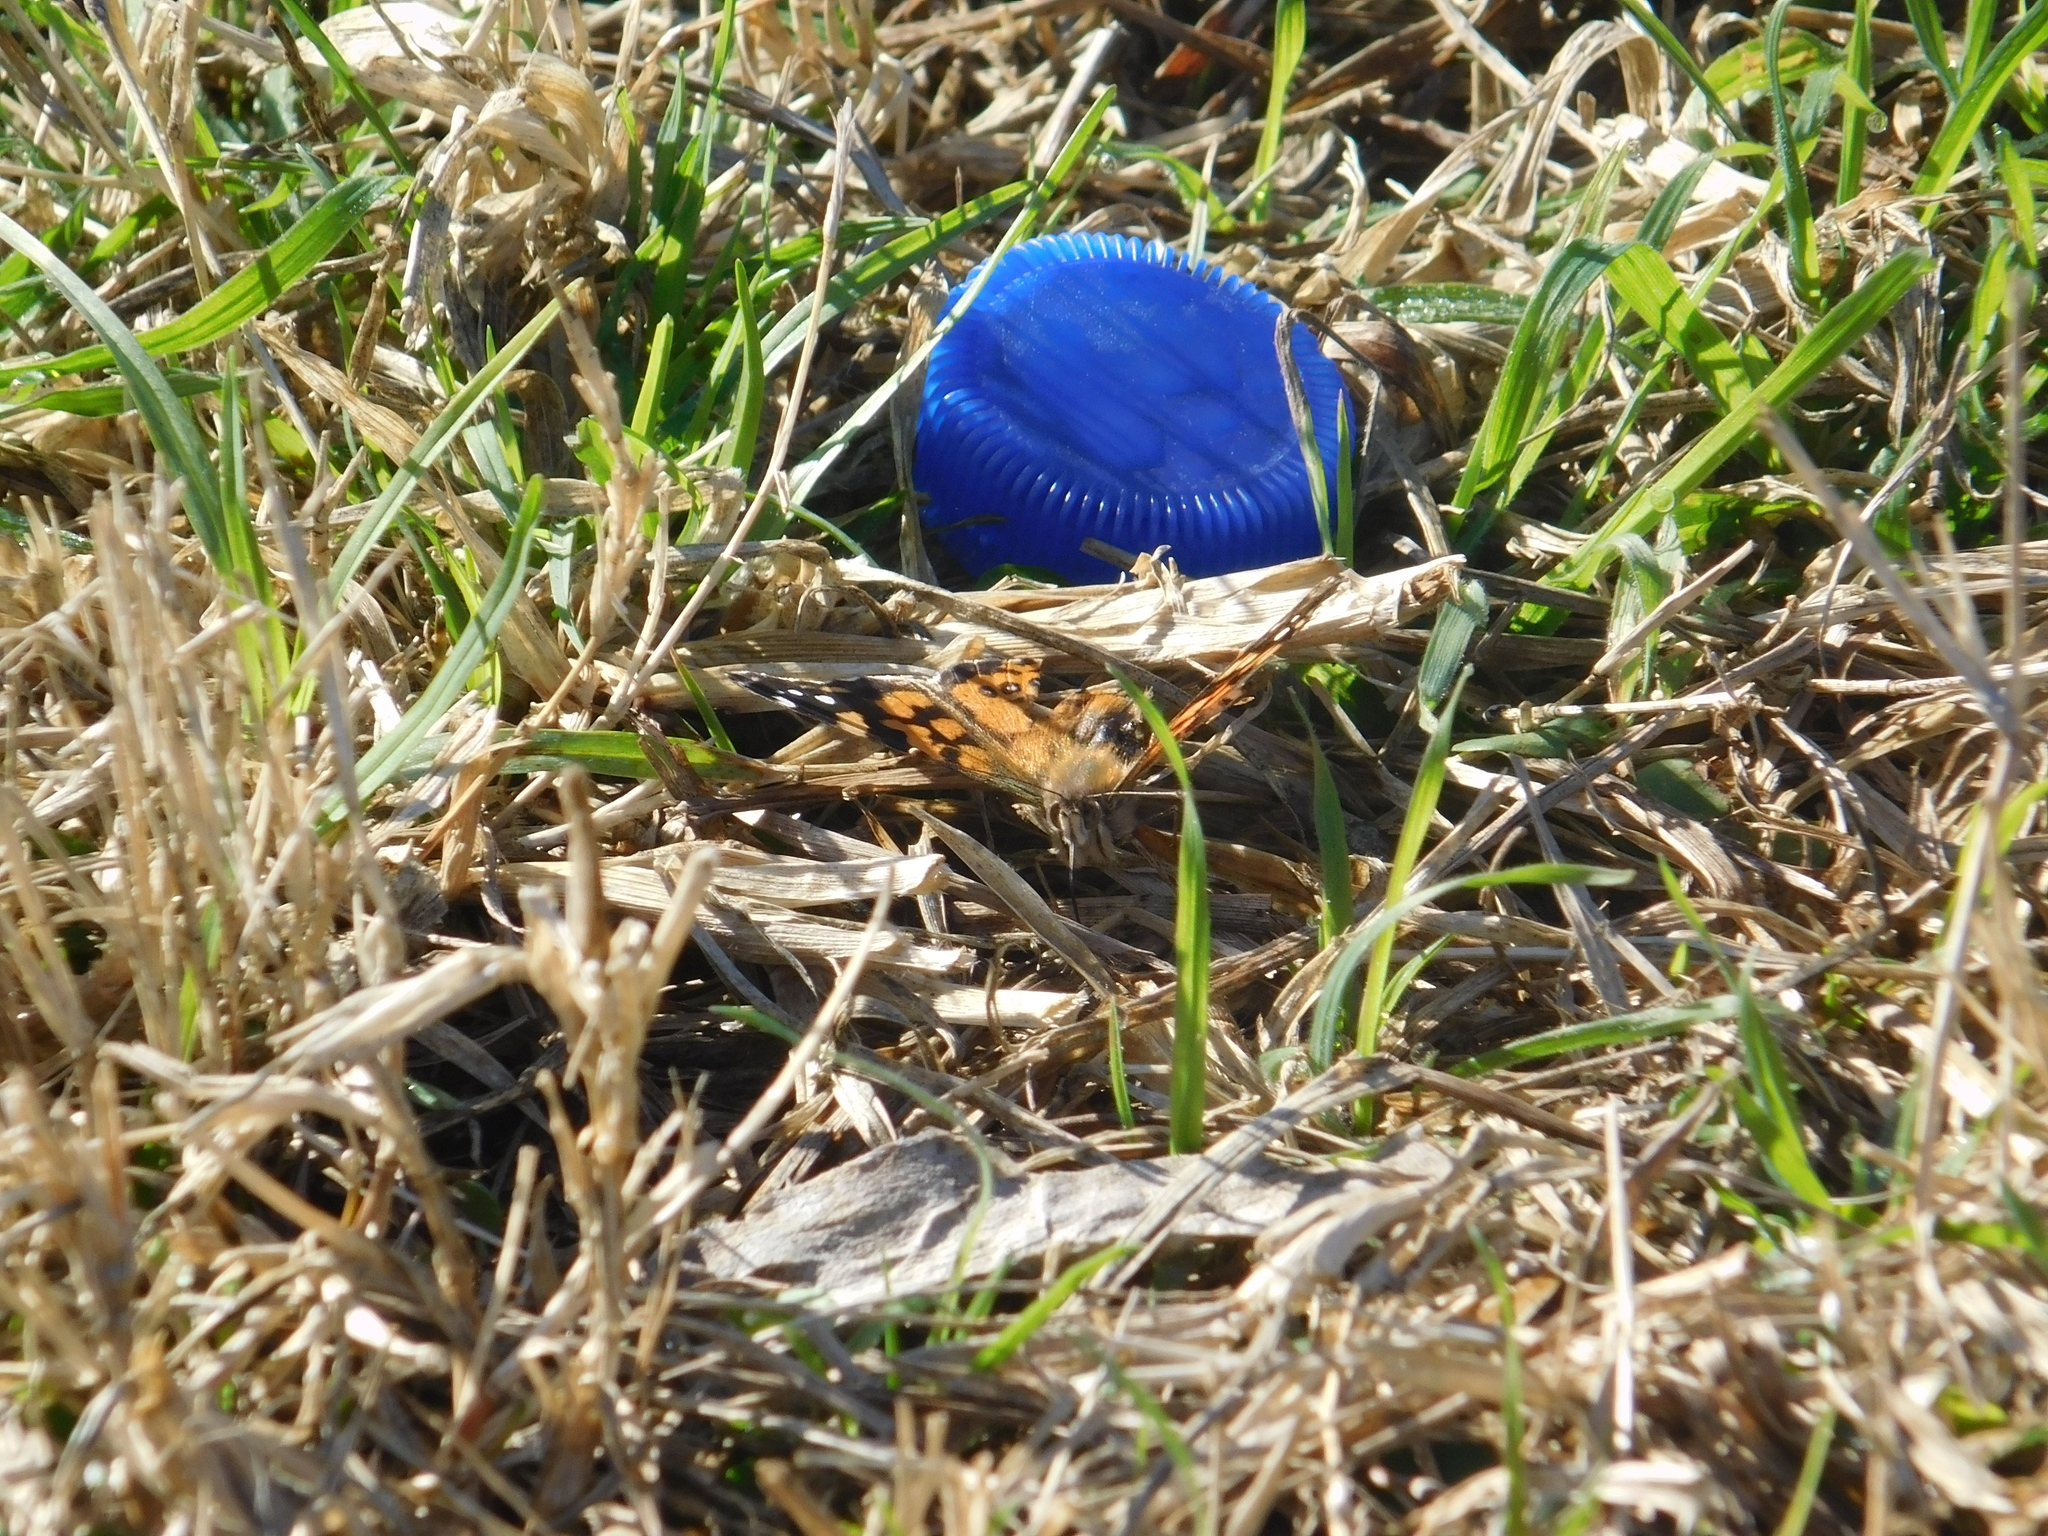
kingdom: Animalia
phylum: Arthropoda
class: Insecta
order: Lepidoptera
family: Nymphalidae
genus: Vanessa
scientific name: Vanessa carye
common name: Subtropical lady
